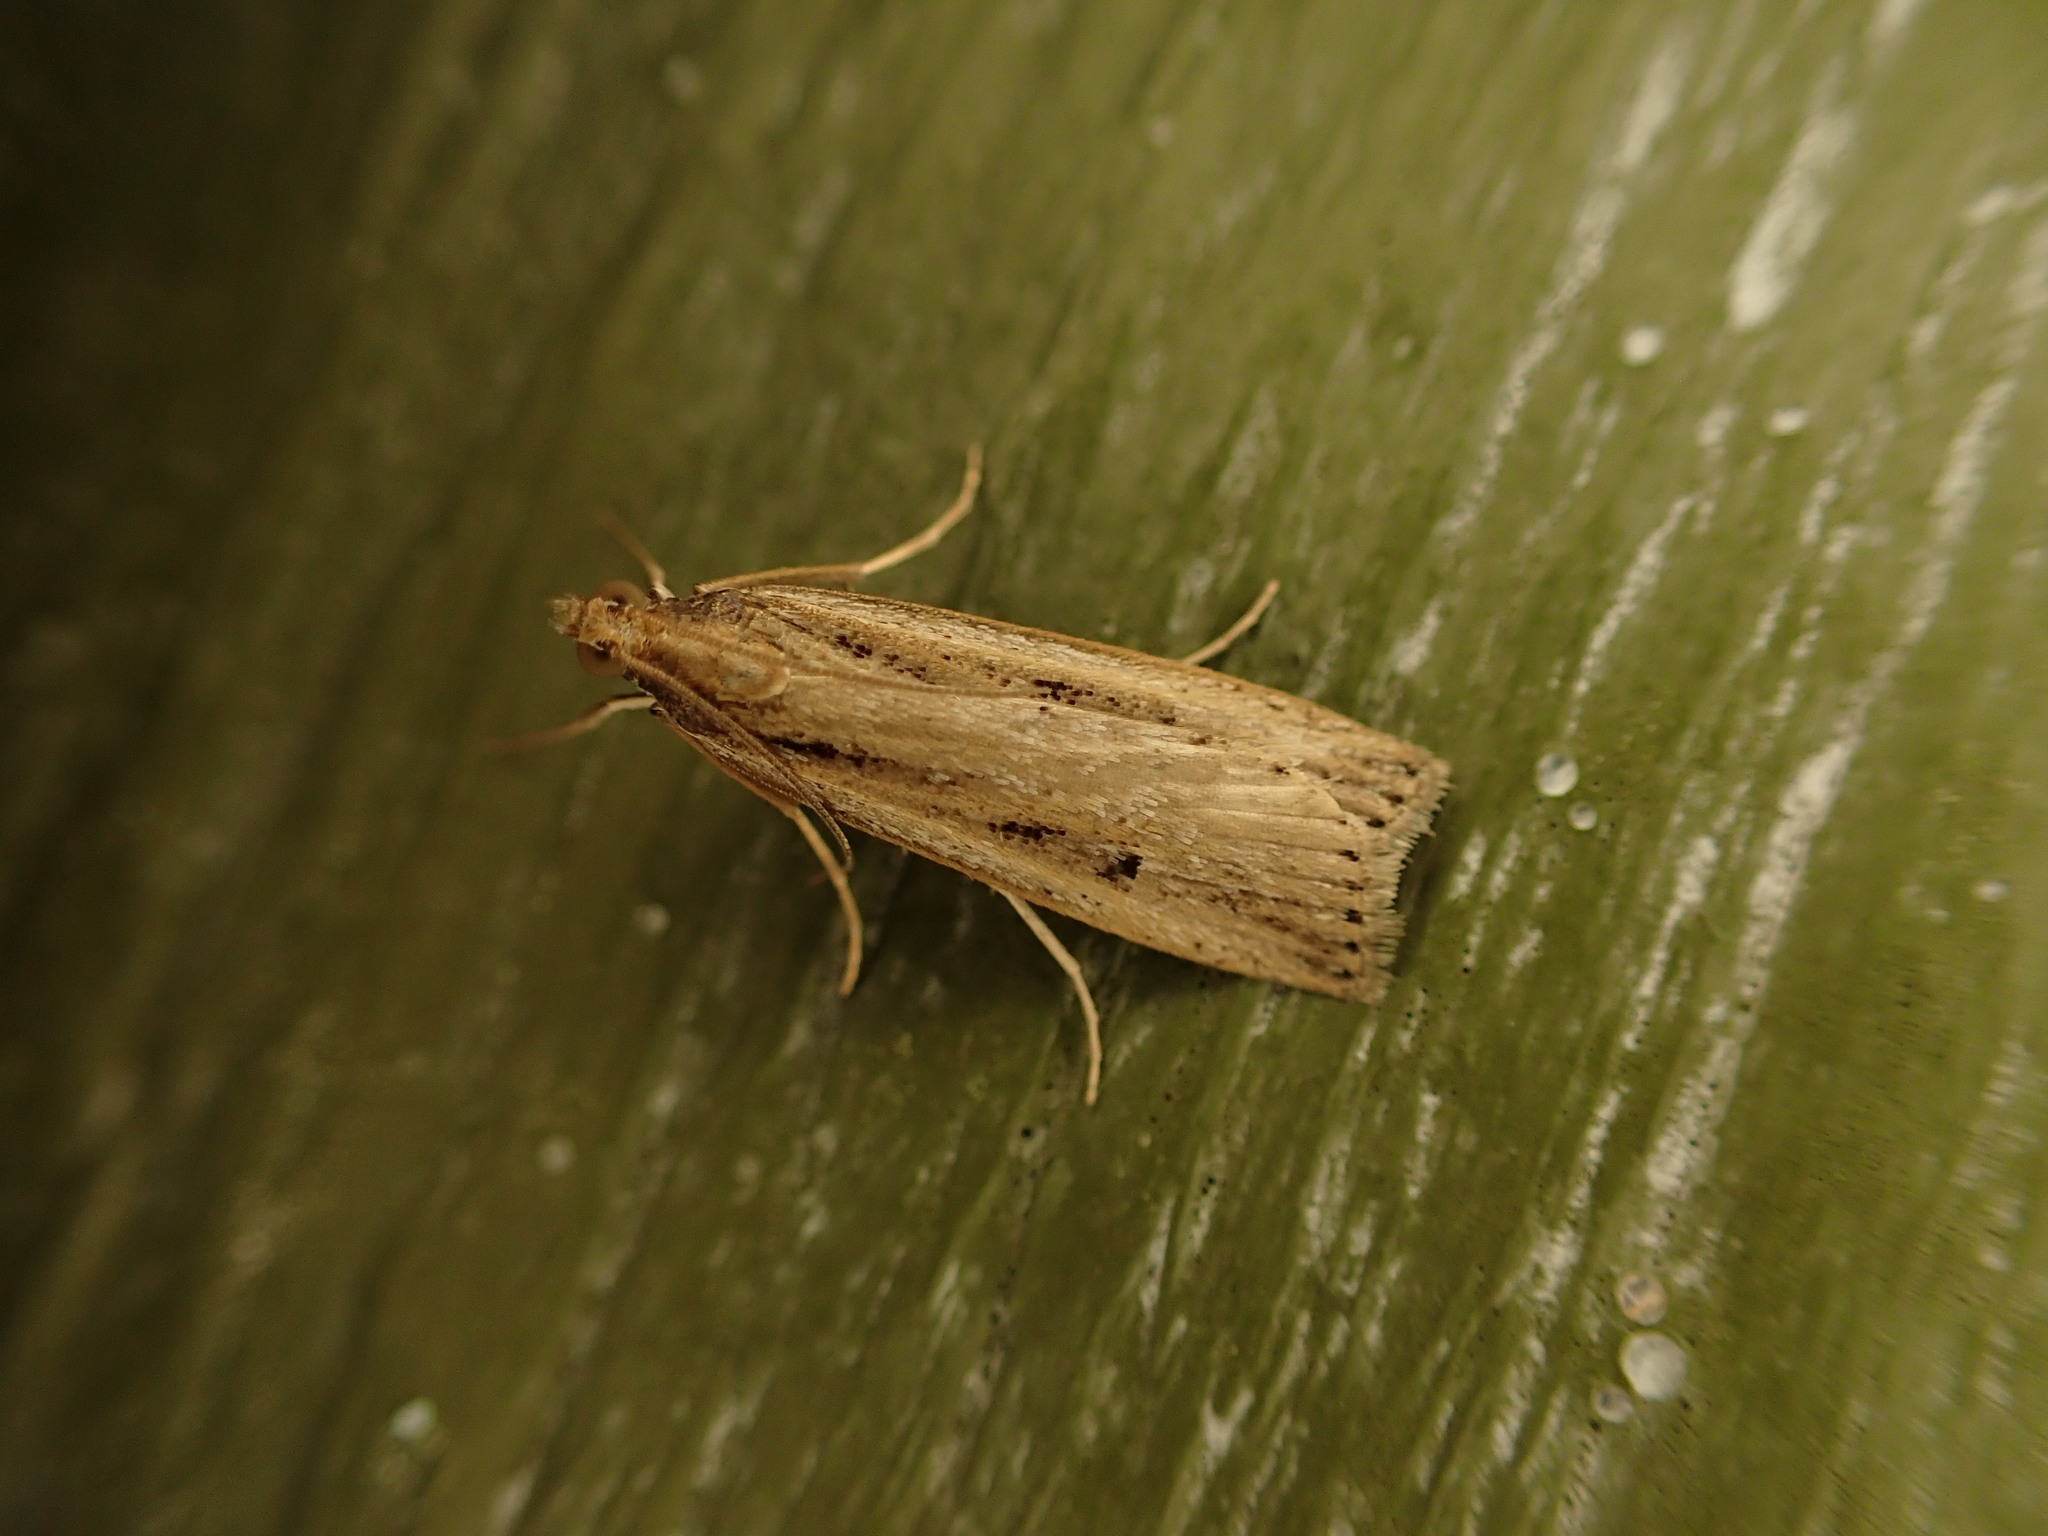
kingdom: Animalia
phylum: Arthropoda
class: Insecta
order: Lepidoptera
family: Crambidae
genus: Eudonia
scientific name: Eudonia sabulosella
